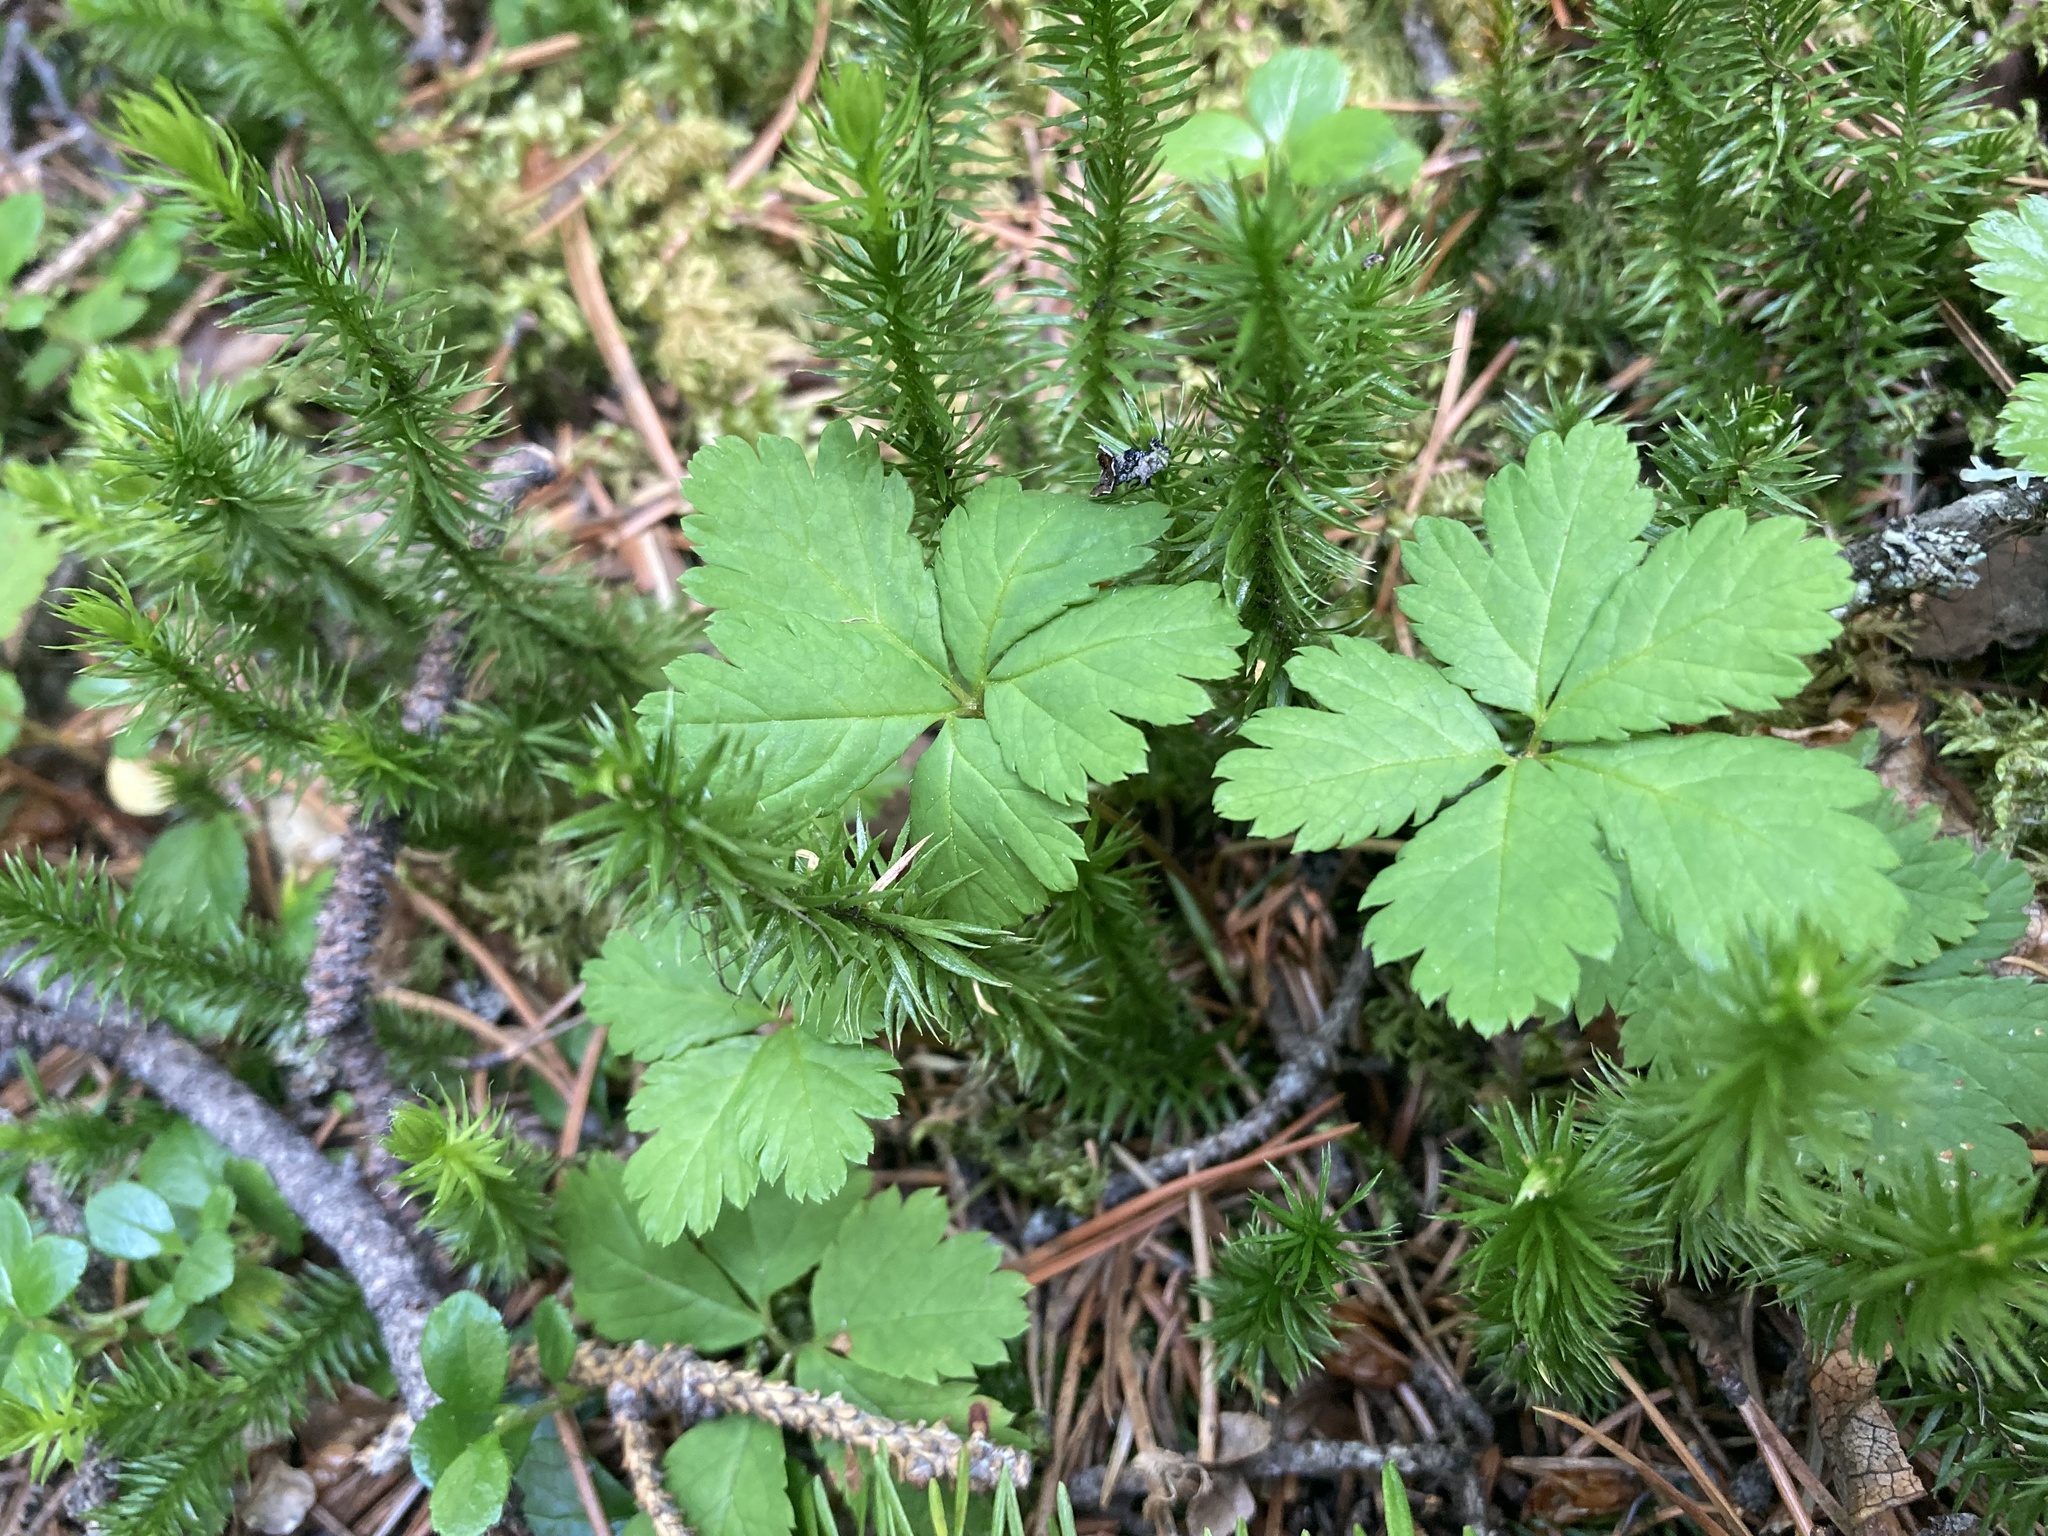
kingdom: Plantae
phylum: Tracheophyta
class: Magnoliopsida
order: Rosales
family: Rosaceae
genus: Rubus
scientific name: Rubus pedatus
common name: Creeping raspberry
